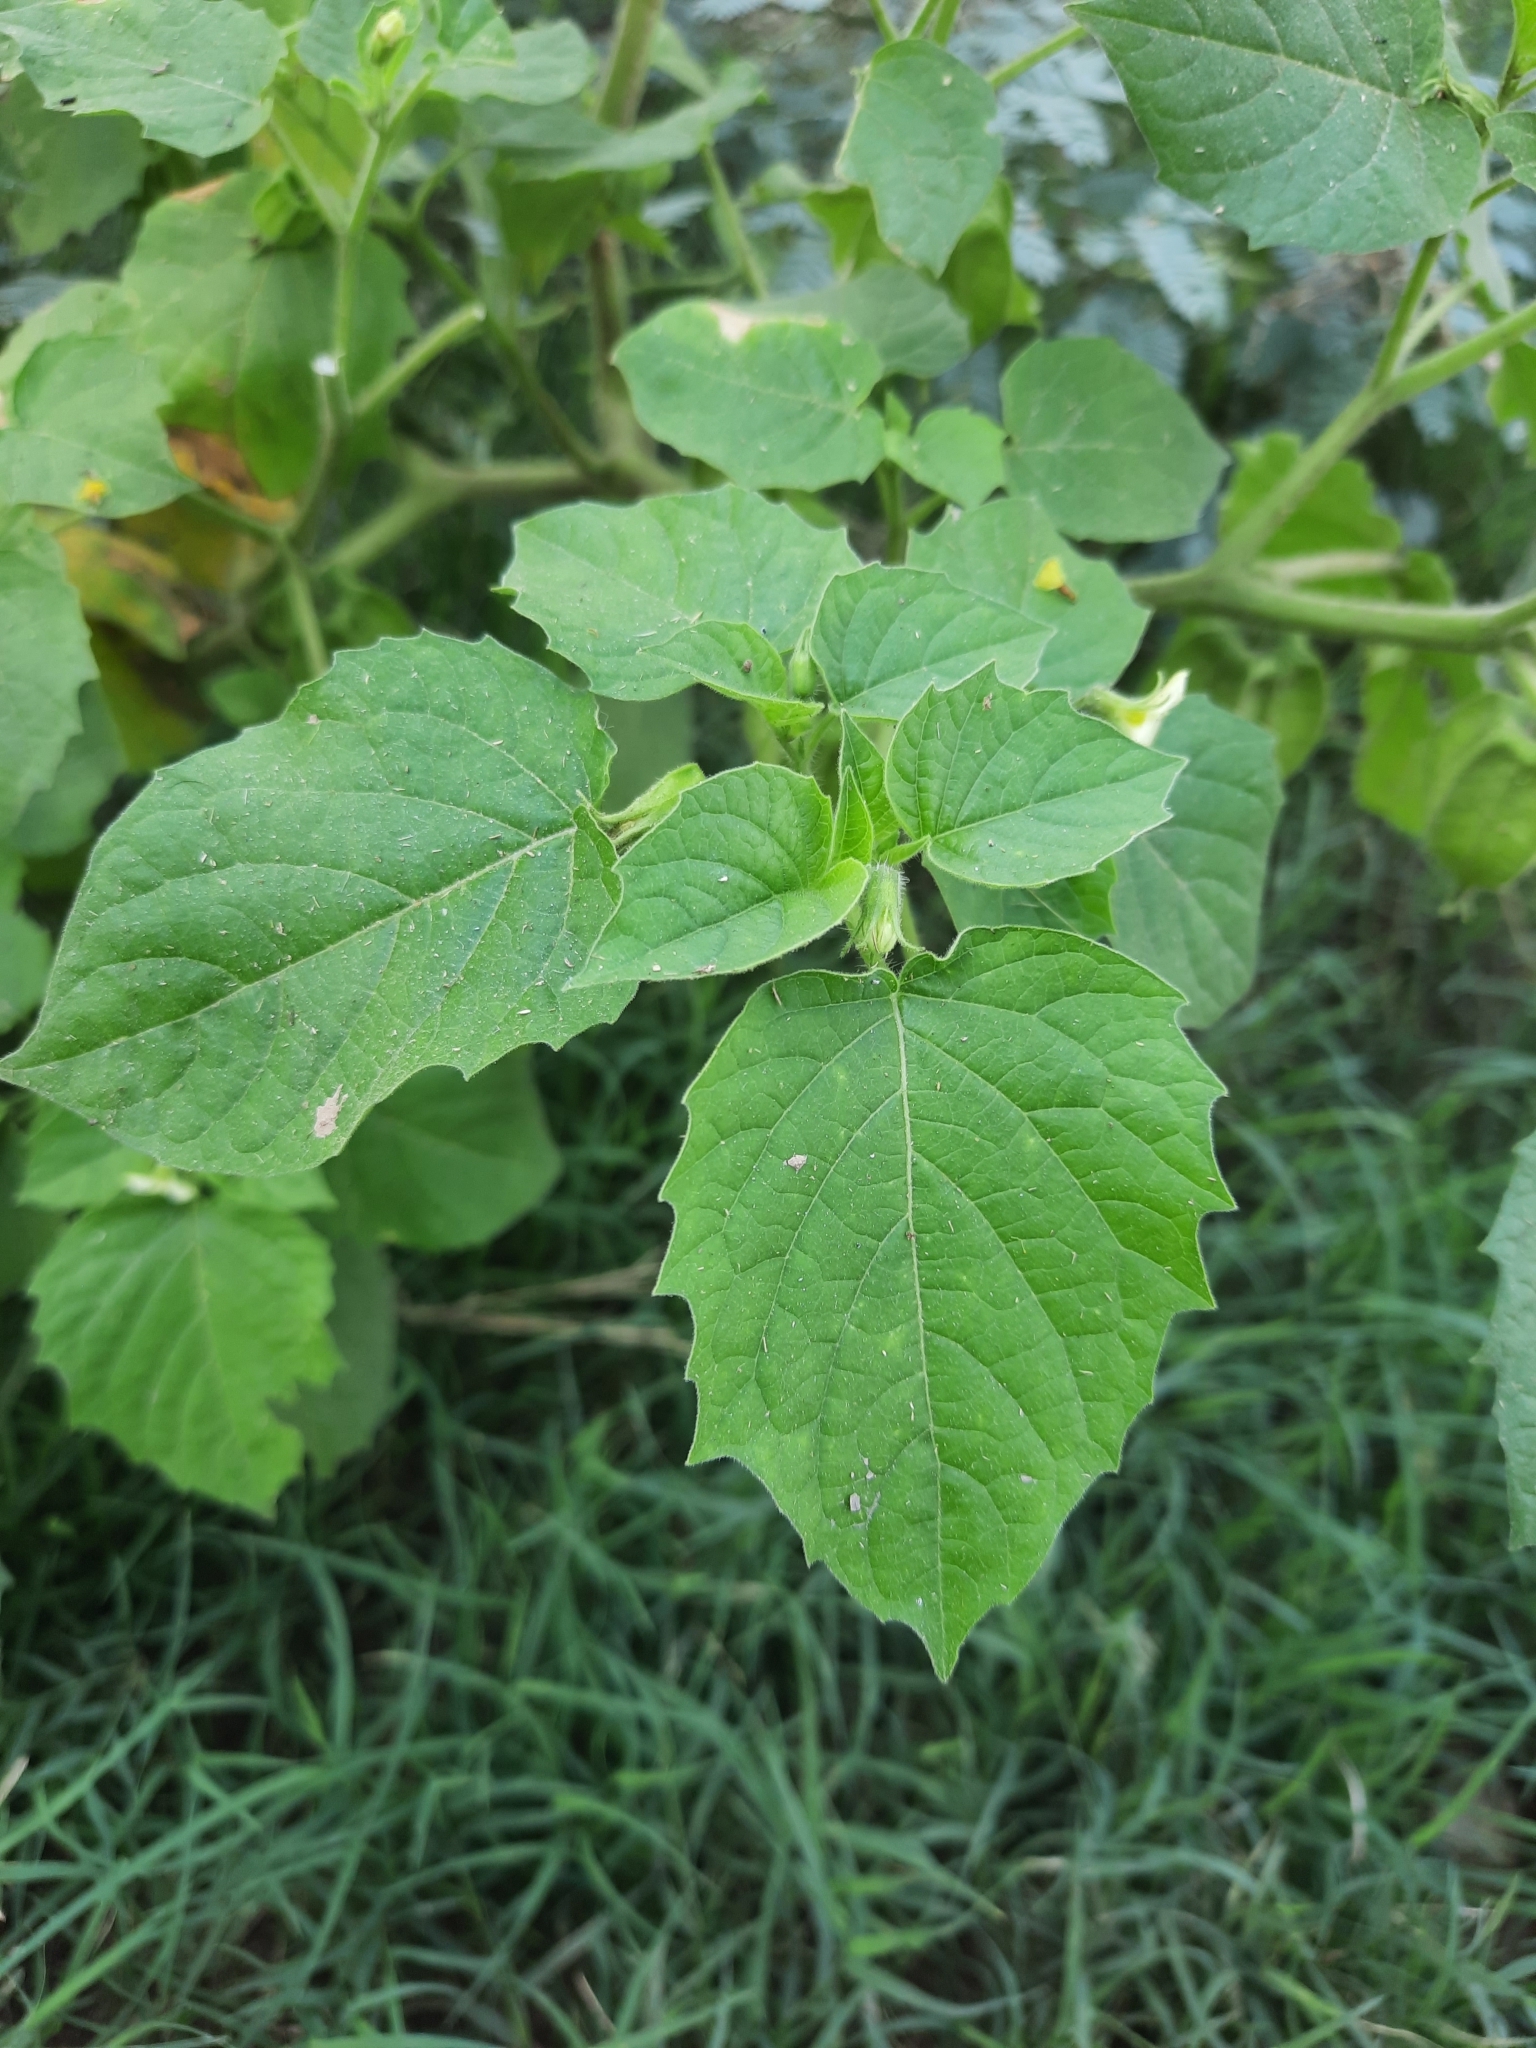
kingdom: Plantae
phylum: Tracheophyta
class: Magnoliopsida
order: Solanales
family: Solanaceae
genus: Physalis
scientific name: Physalis pruinosa
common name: Strawberry tomato
